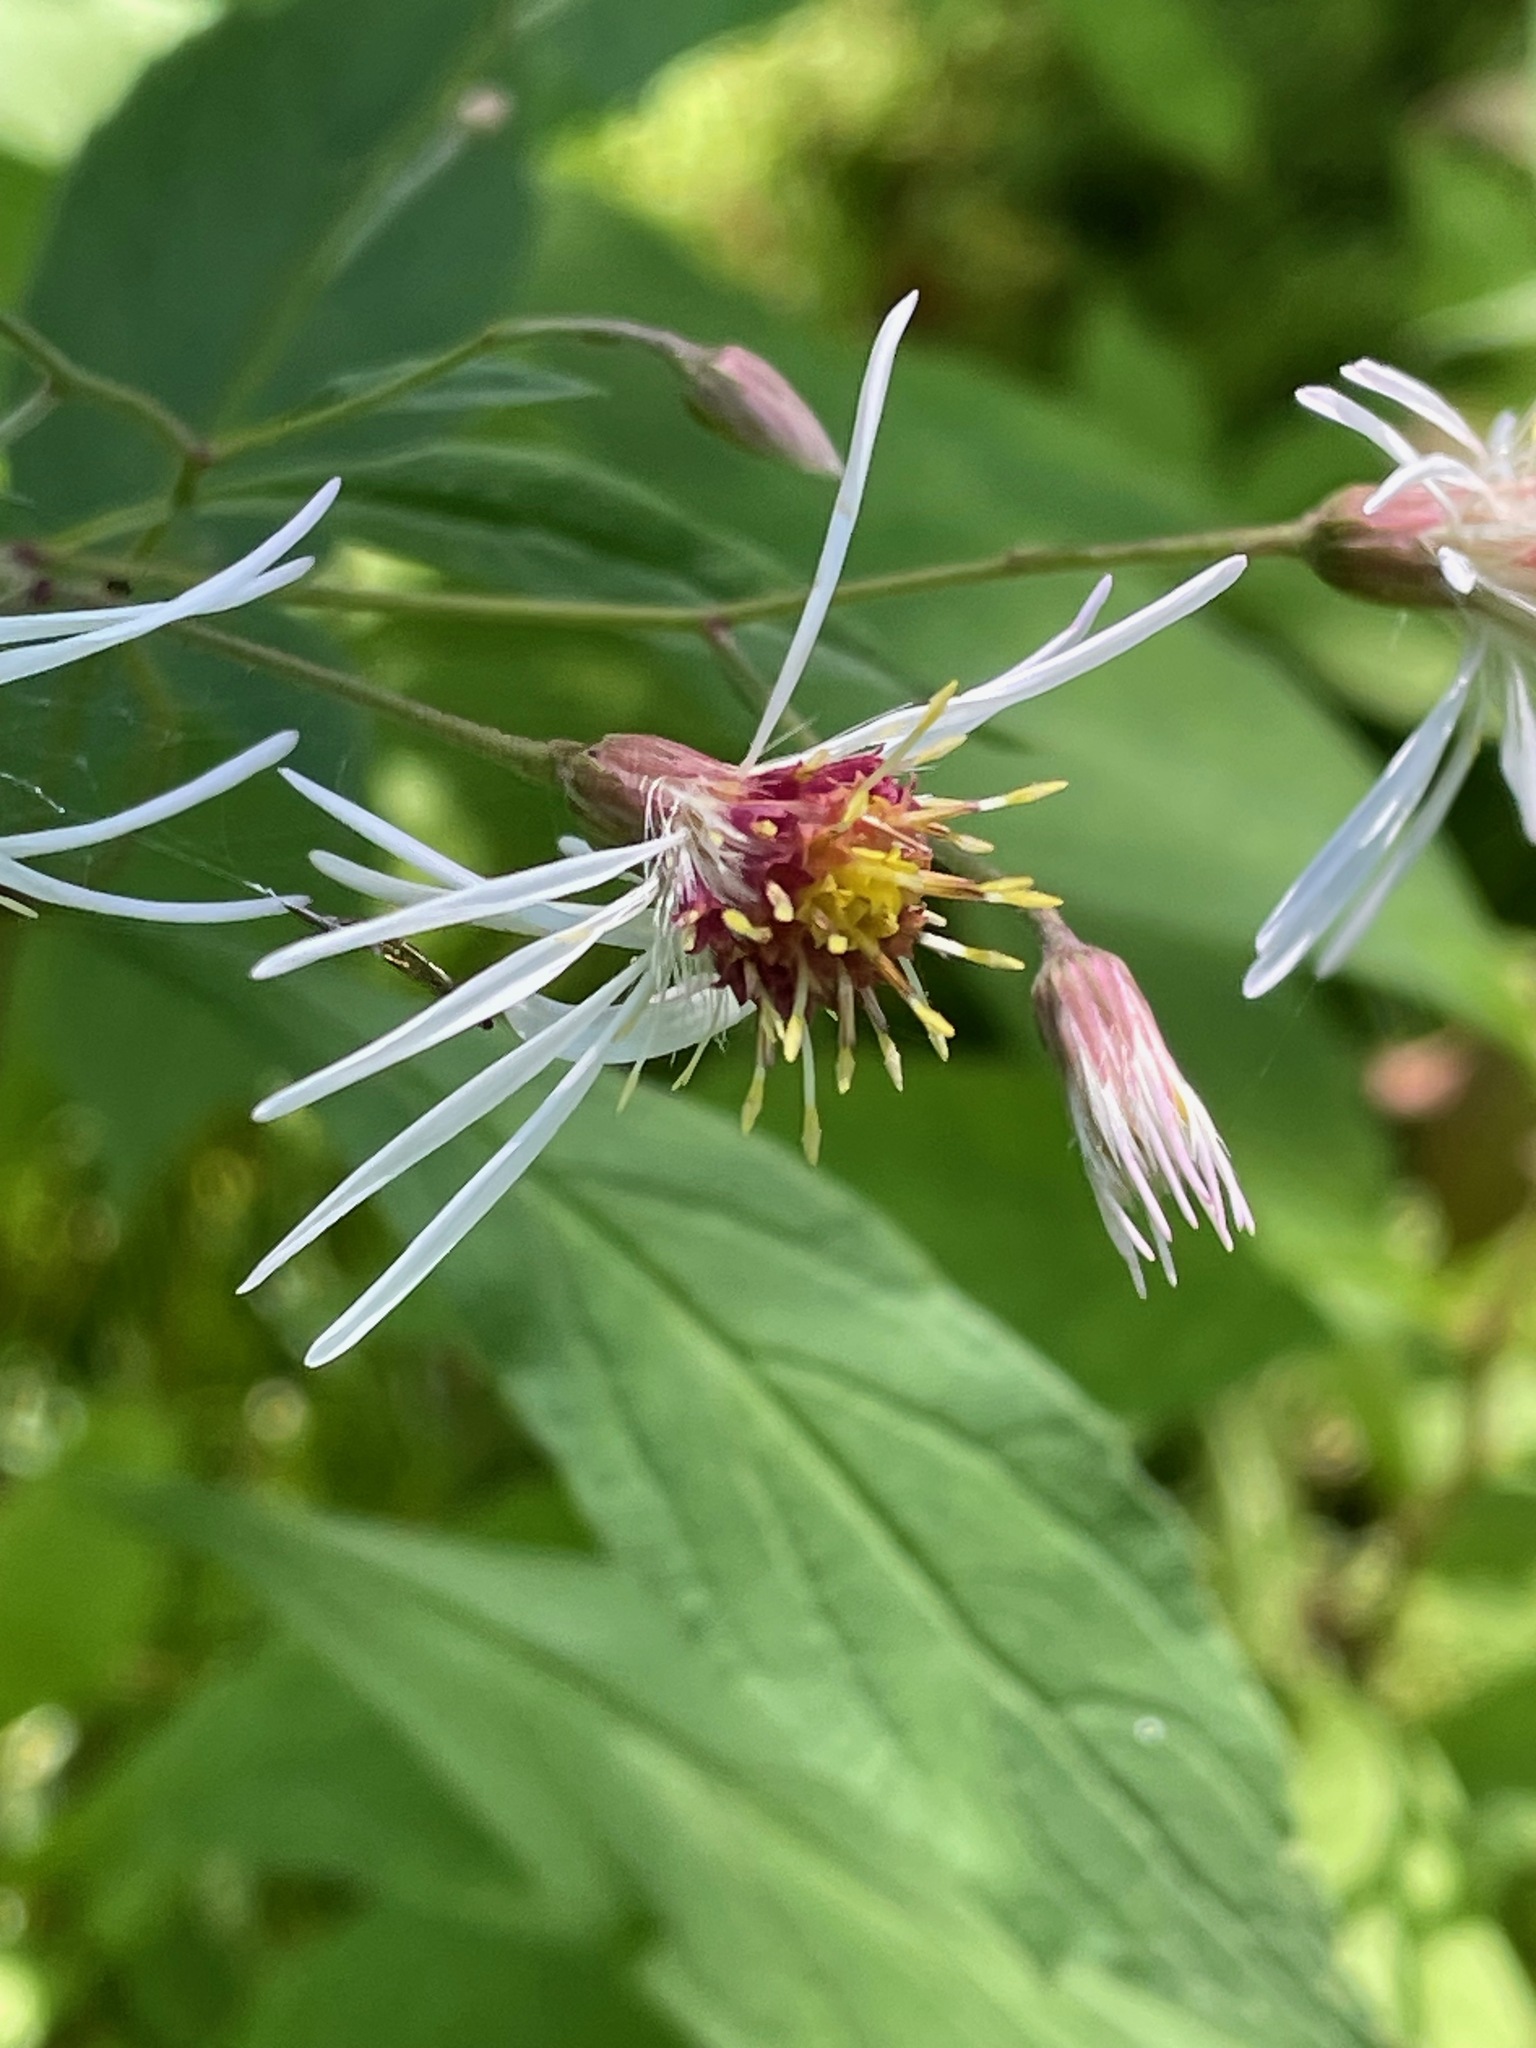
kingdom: Plantae
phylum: Tracheophyta
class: Magnoliopsida
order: Asterales
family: Asteraceae
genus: Oclemena
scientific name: Oclemena acuminata
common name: Mountain aster
